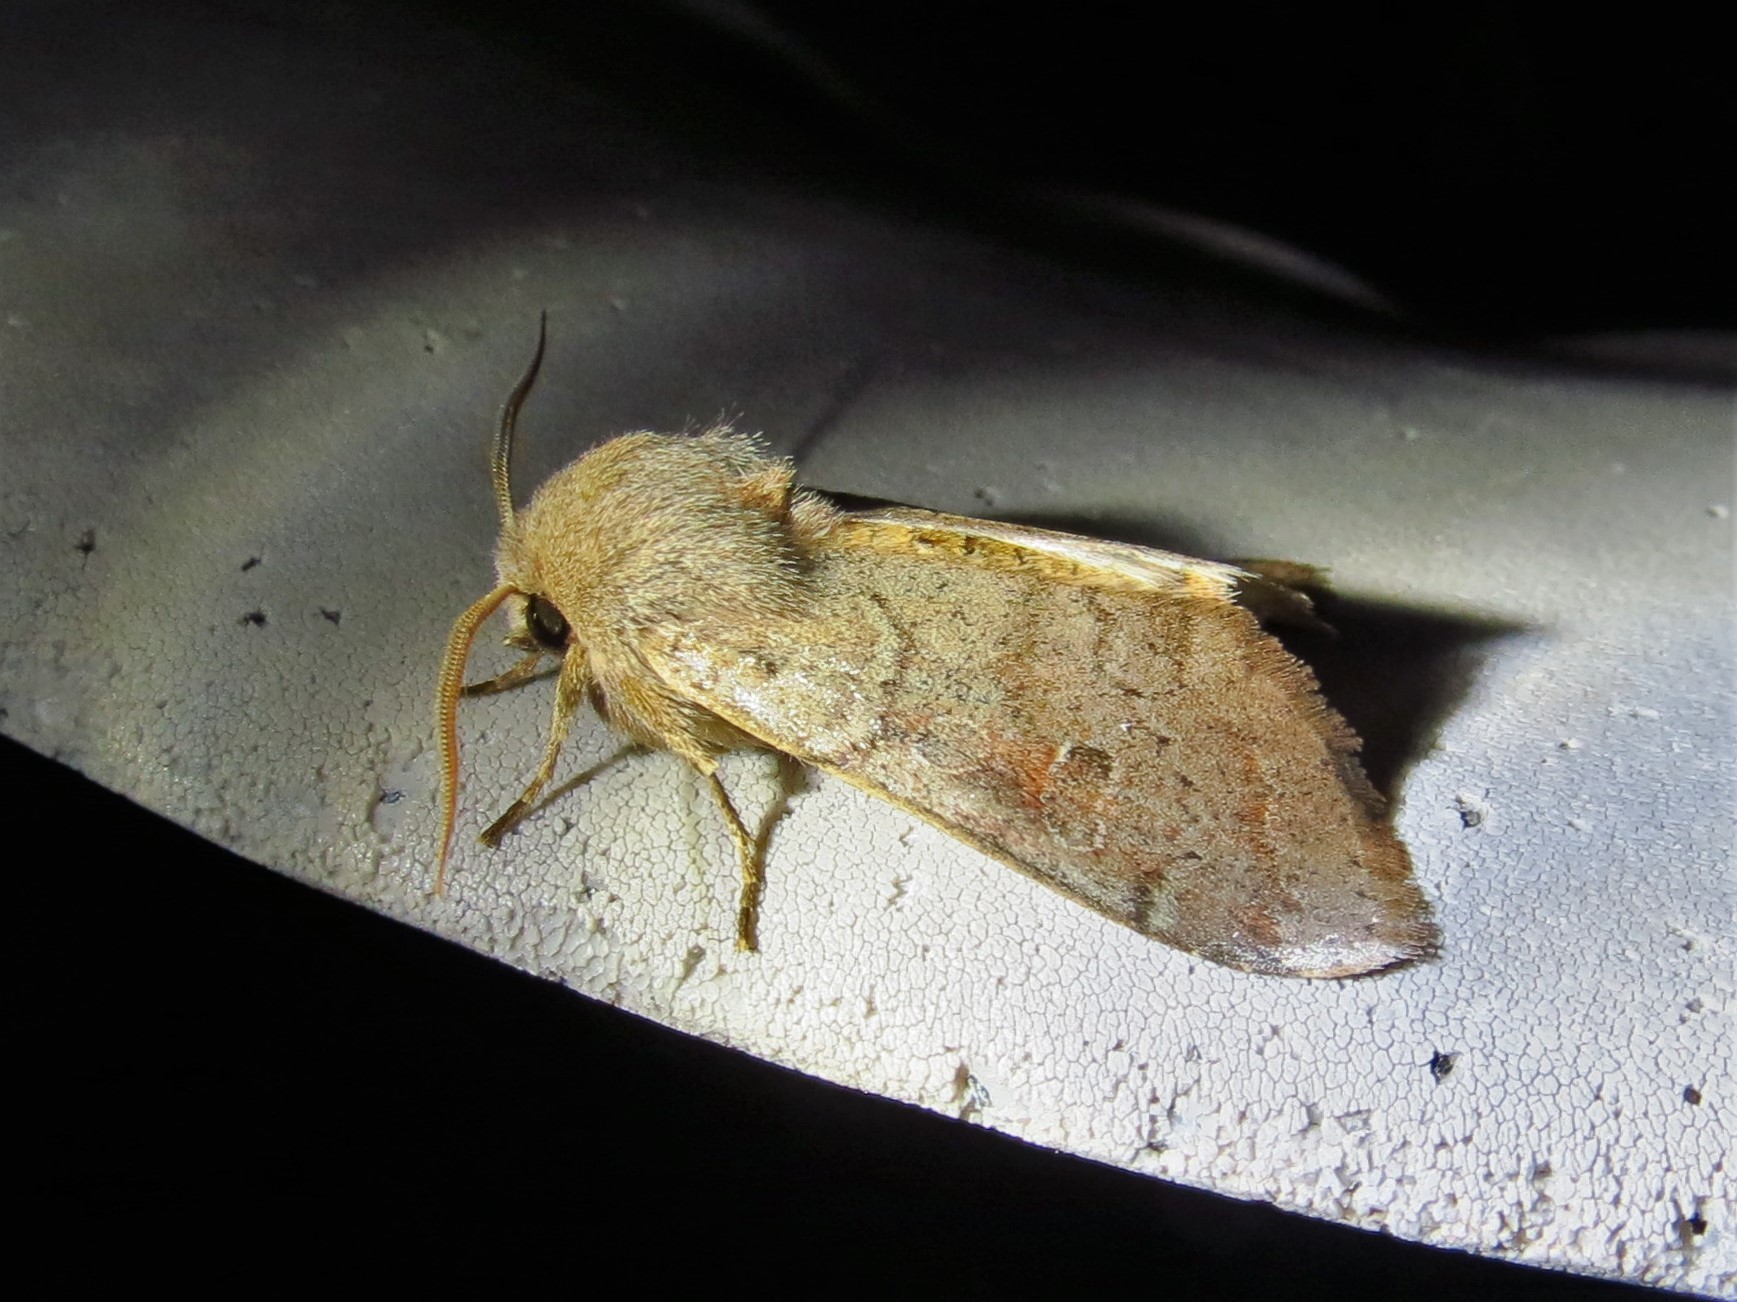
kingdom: Animalia
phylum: Arthropoda
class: Insecta
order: Lepidoptera
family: Noctuidae
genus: Orthosia
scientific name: Orthosia alurina
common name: Gray quaker
